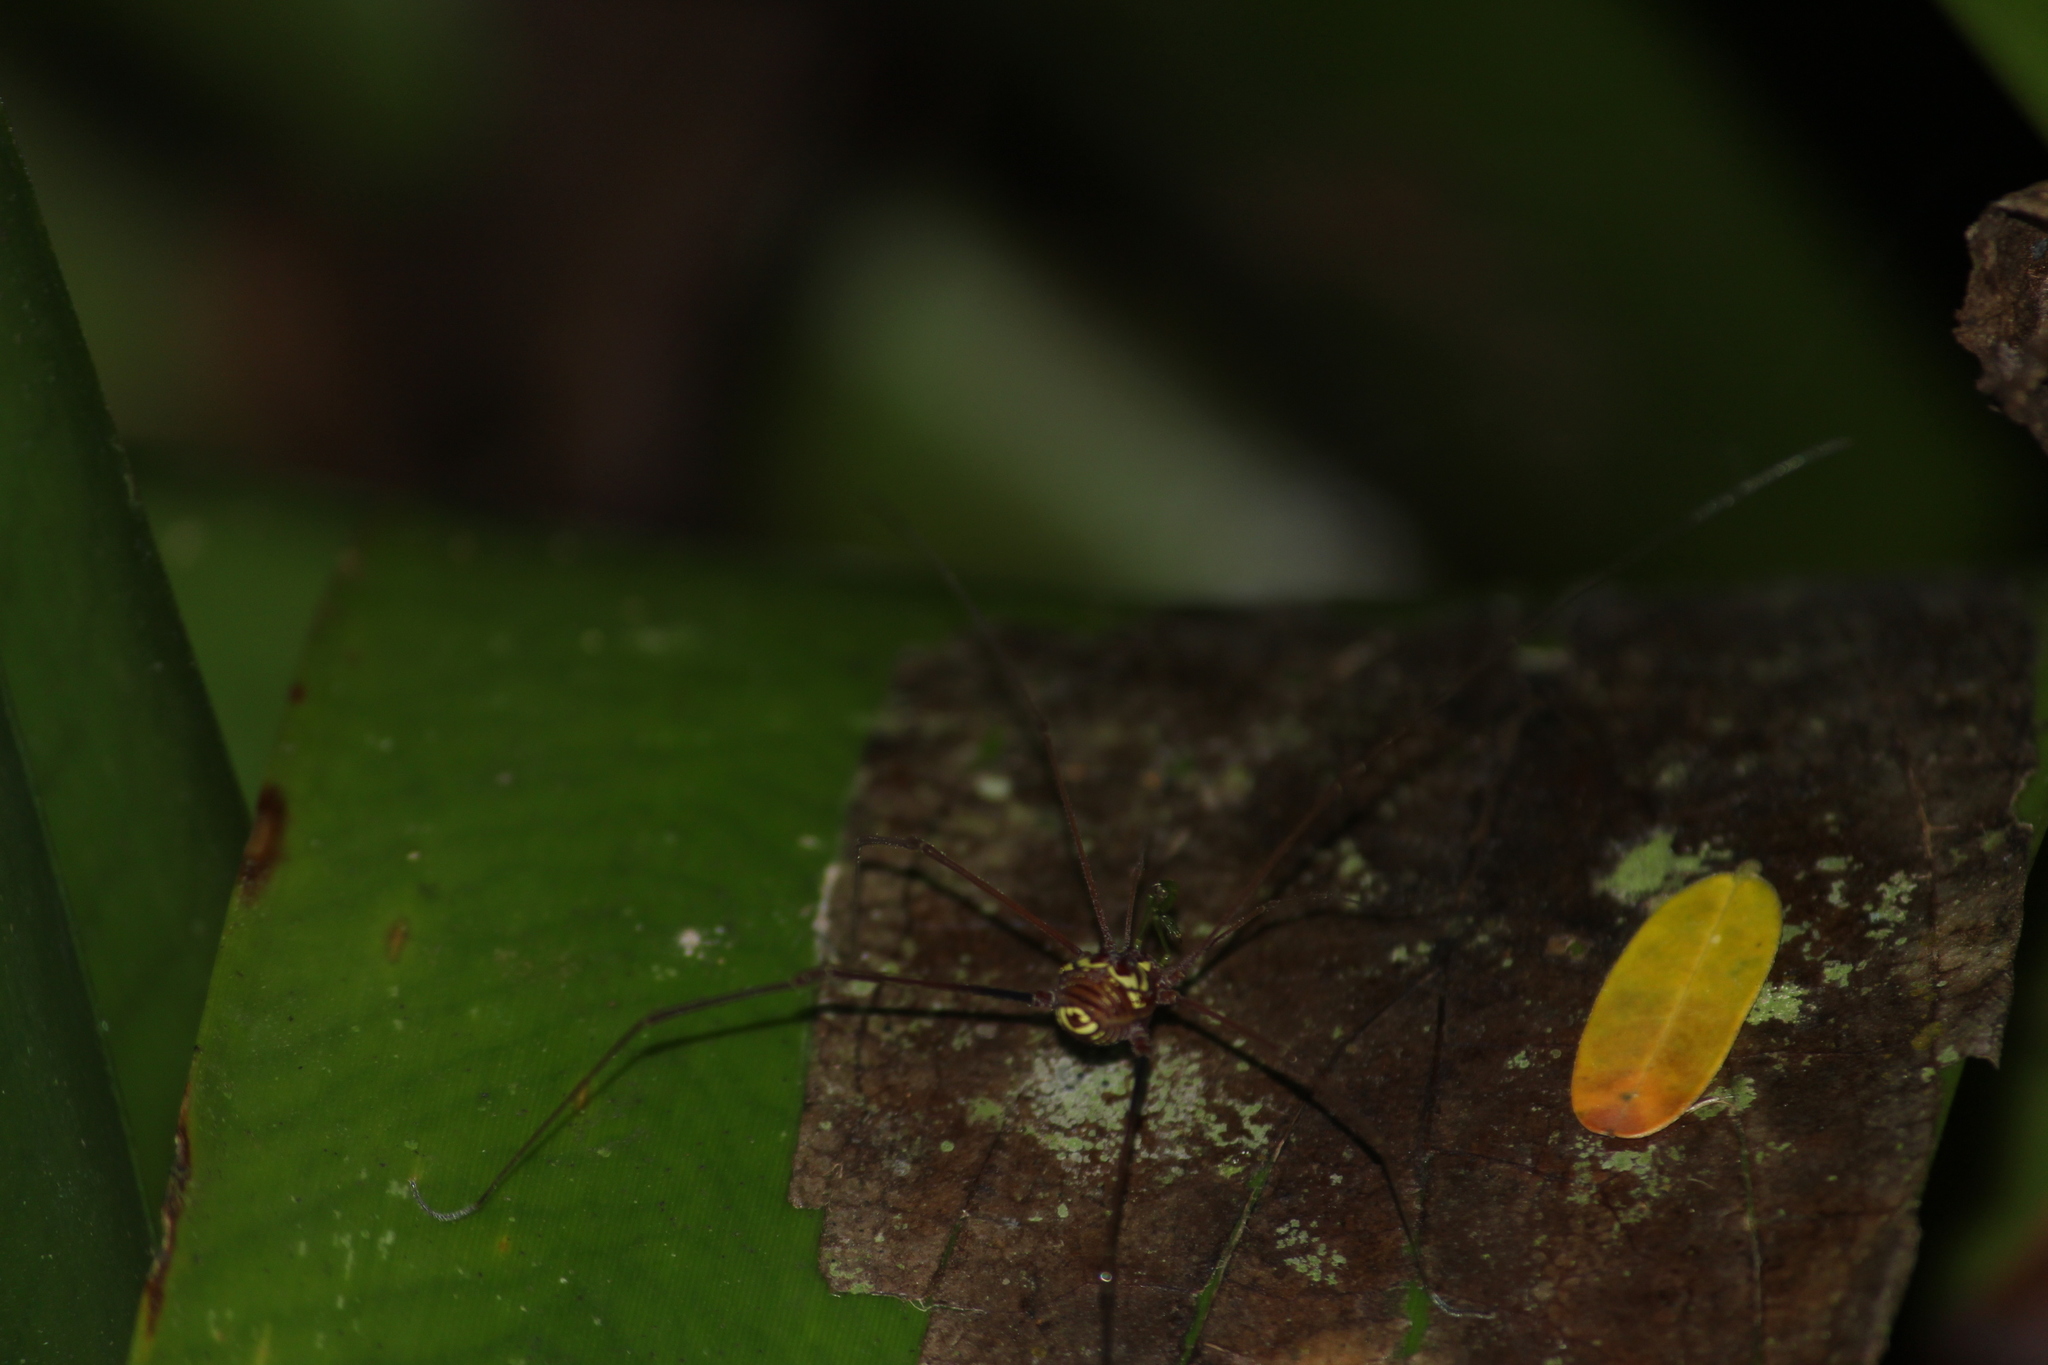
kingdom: Animalia
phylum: Arthropoda
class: Arachnida
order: Opiliones
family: Gonyleptidae
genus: Thereza
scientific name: Thereza speciosa
